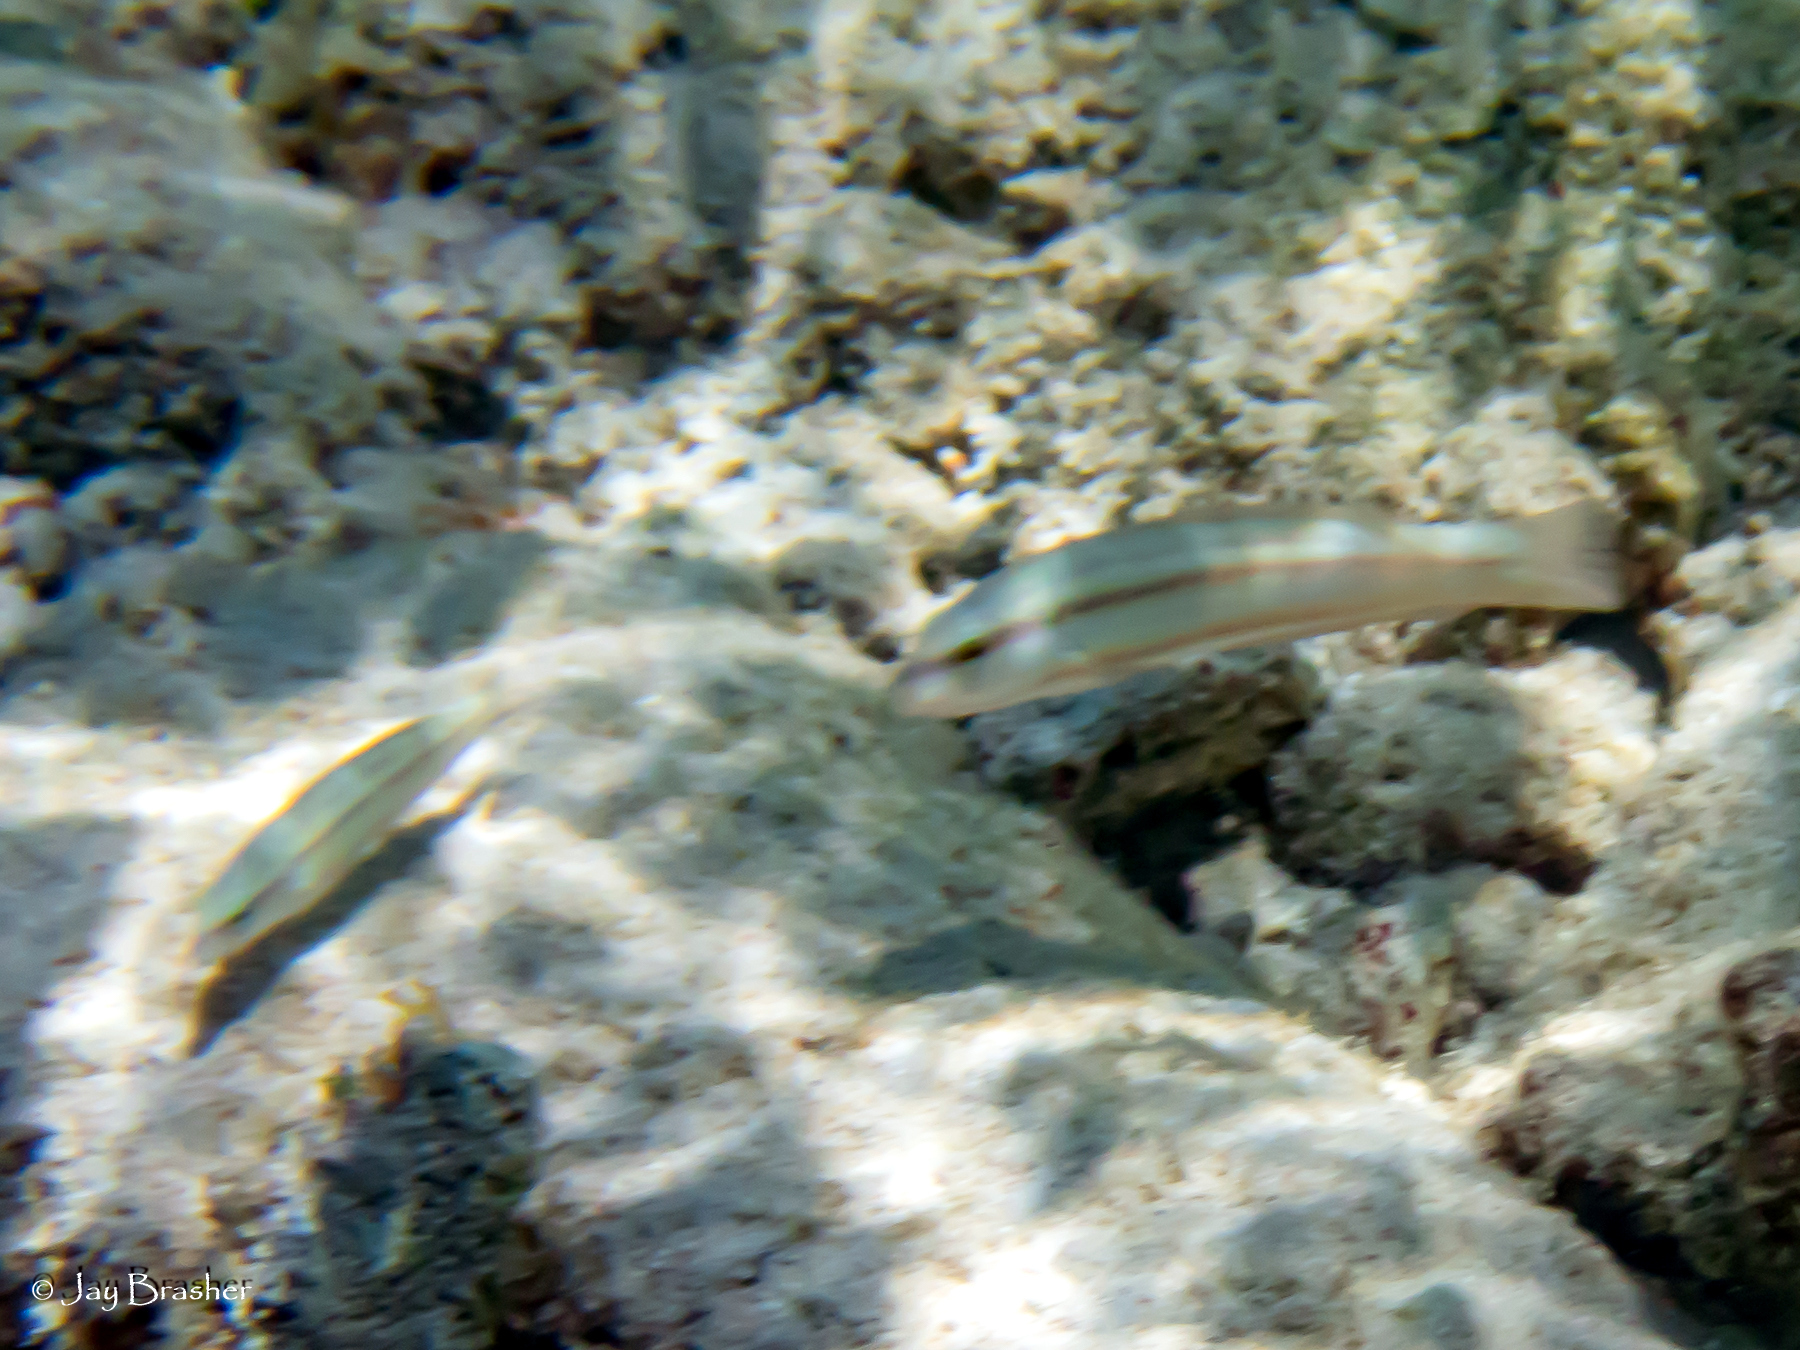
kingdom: Animalia
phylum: Chordata
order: Perciformes
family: Labridae
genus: Halichoeres
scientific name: Halichoeres bivittatus
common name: Slippery dick
